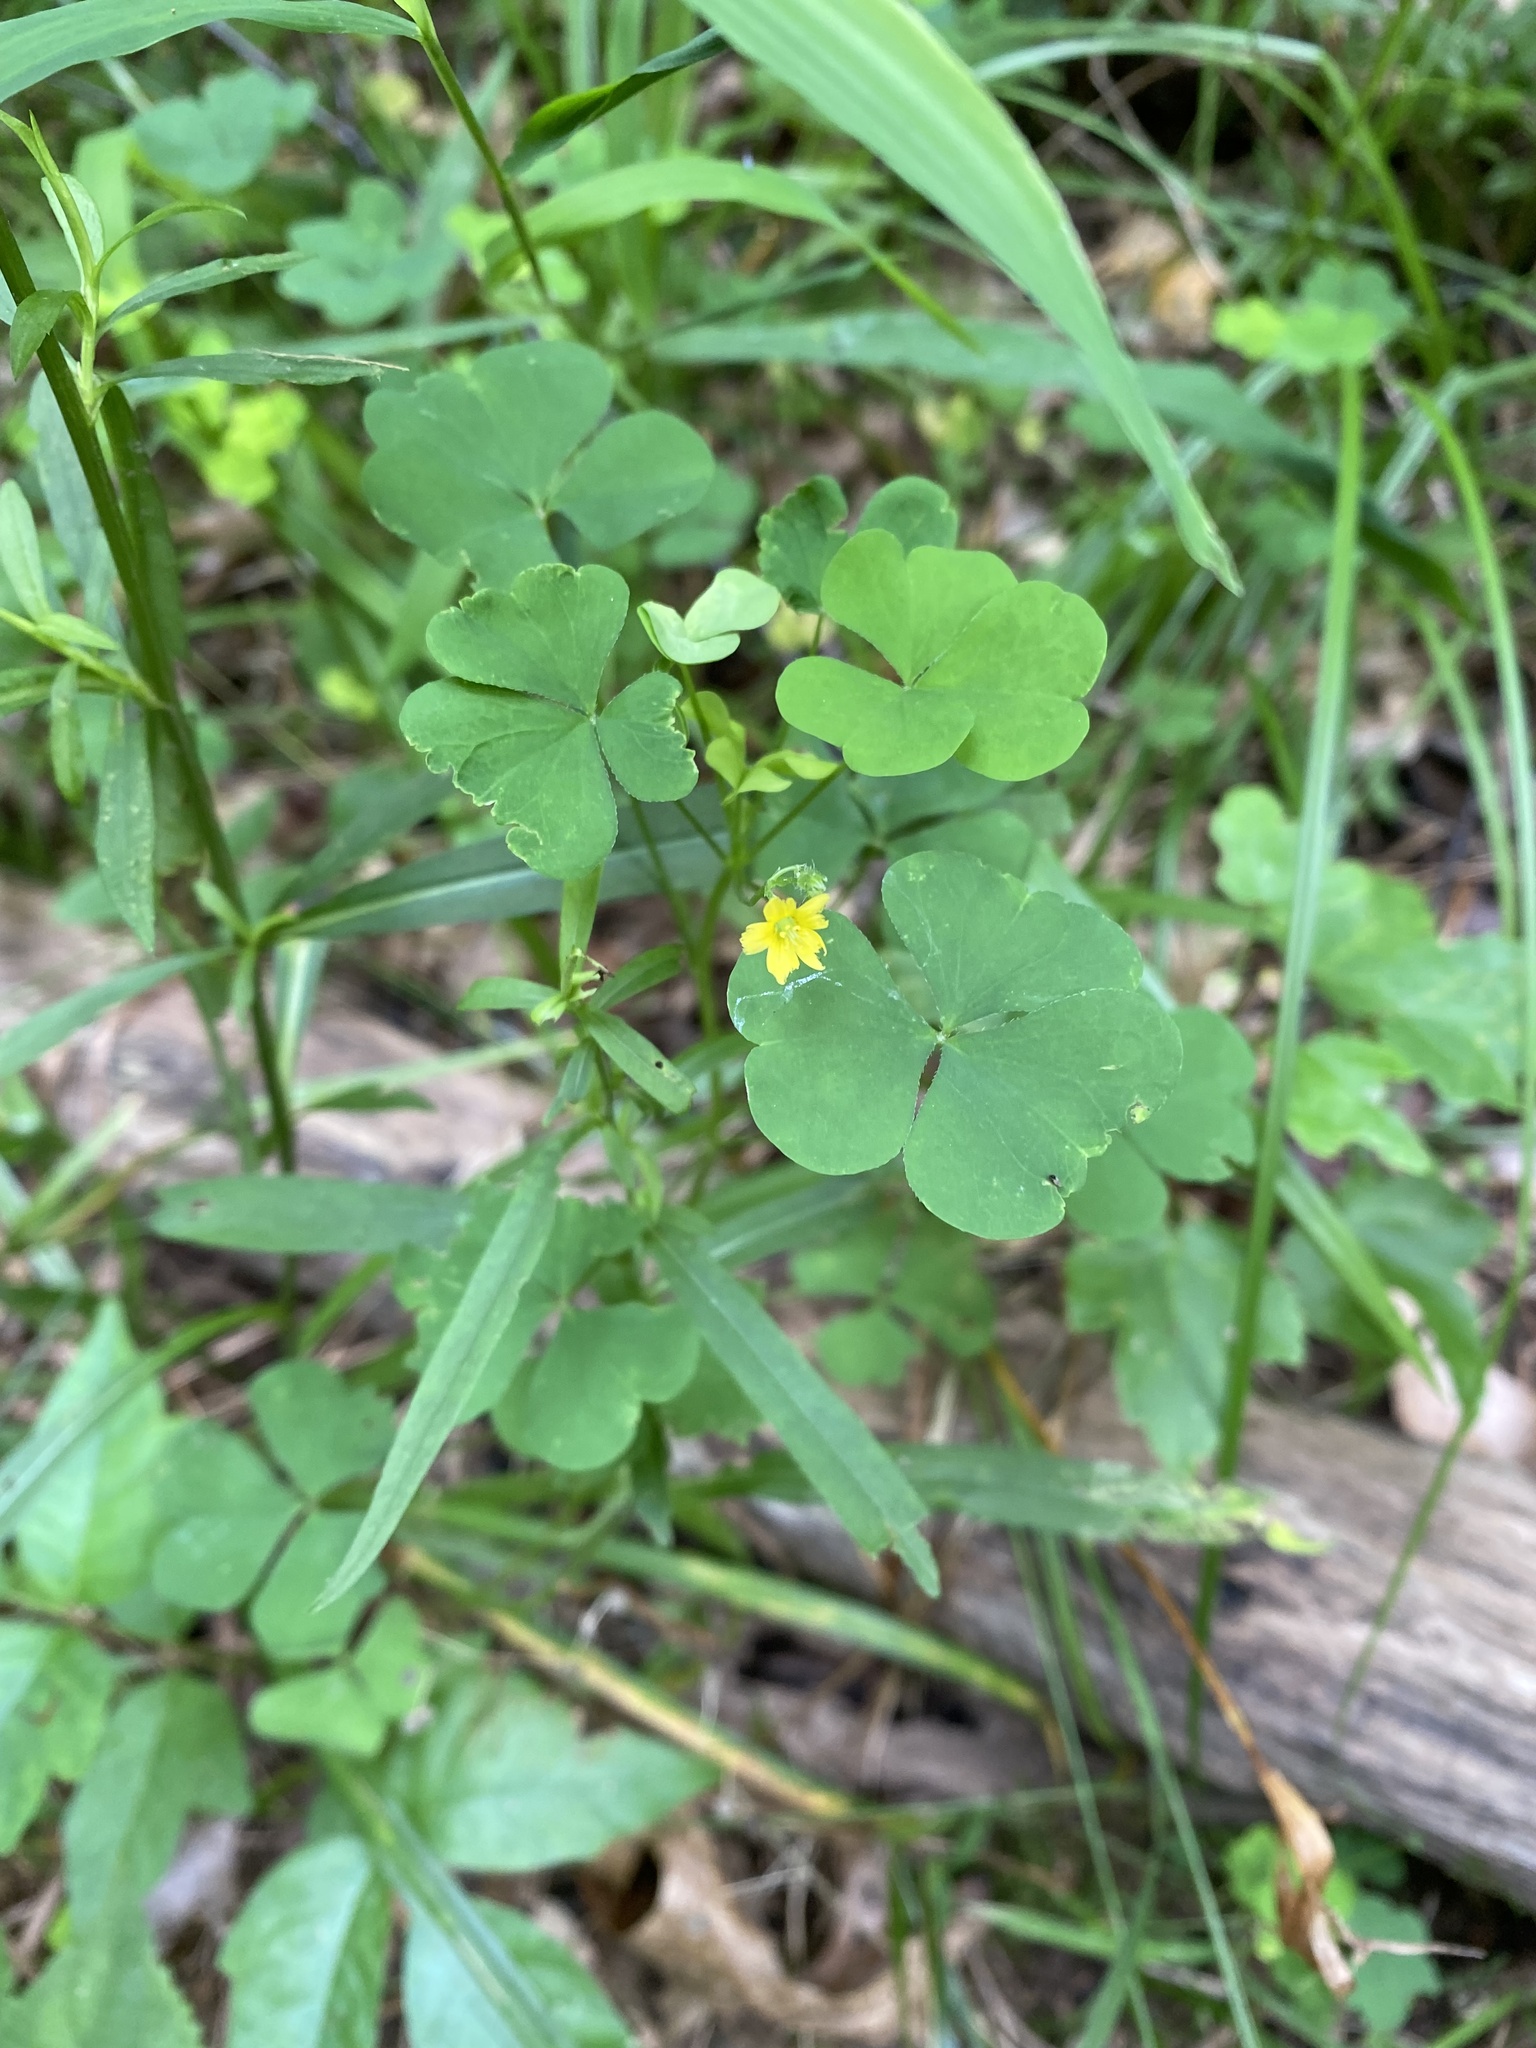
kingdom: Plantae
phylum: Tracheophyta
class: Magnoliopsida
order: Oxalidales
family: Oxalidaceae
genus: Oxalis
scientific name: Oxalis stricta
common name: Upright yellow-sorrel
